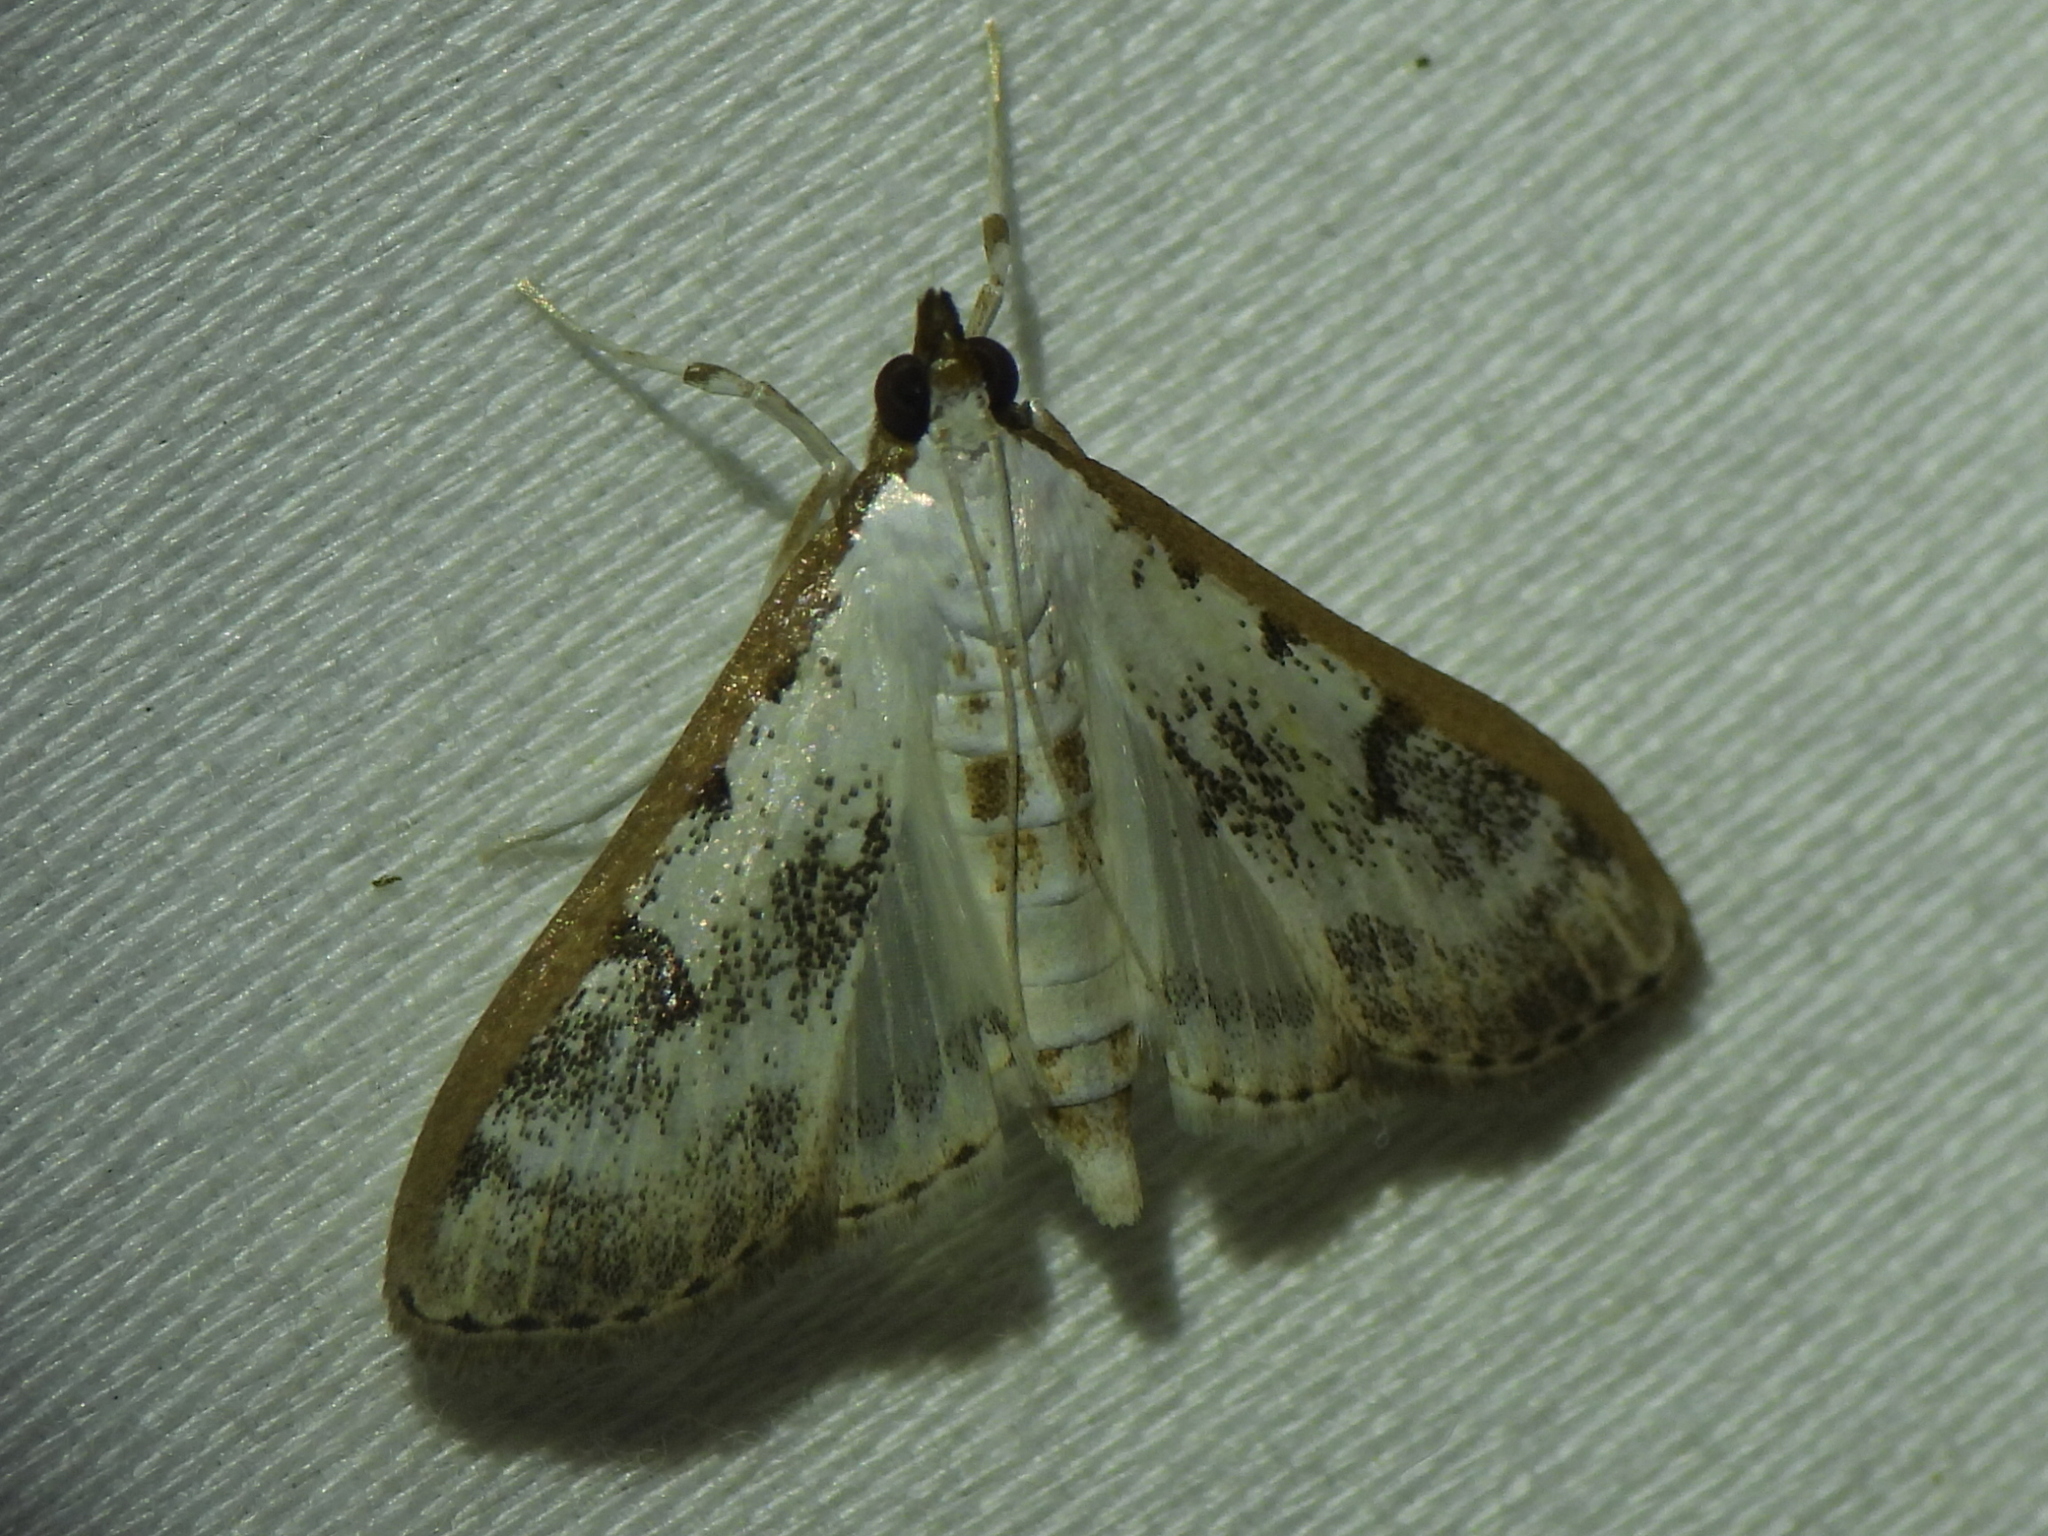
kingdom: Animalia
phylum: Arthropoda
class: Insecta
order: Lepidoptera
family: Crambidae
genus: Palpita
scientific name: Palpita gracilalis
